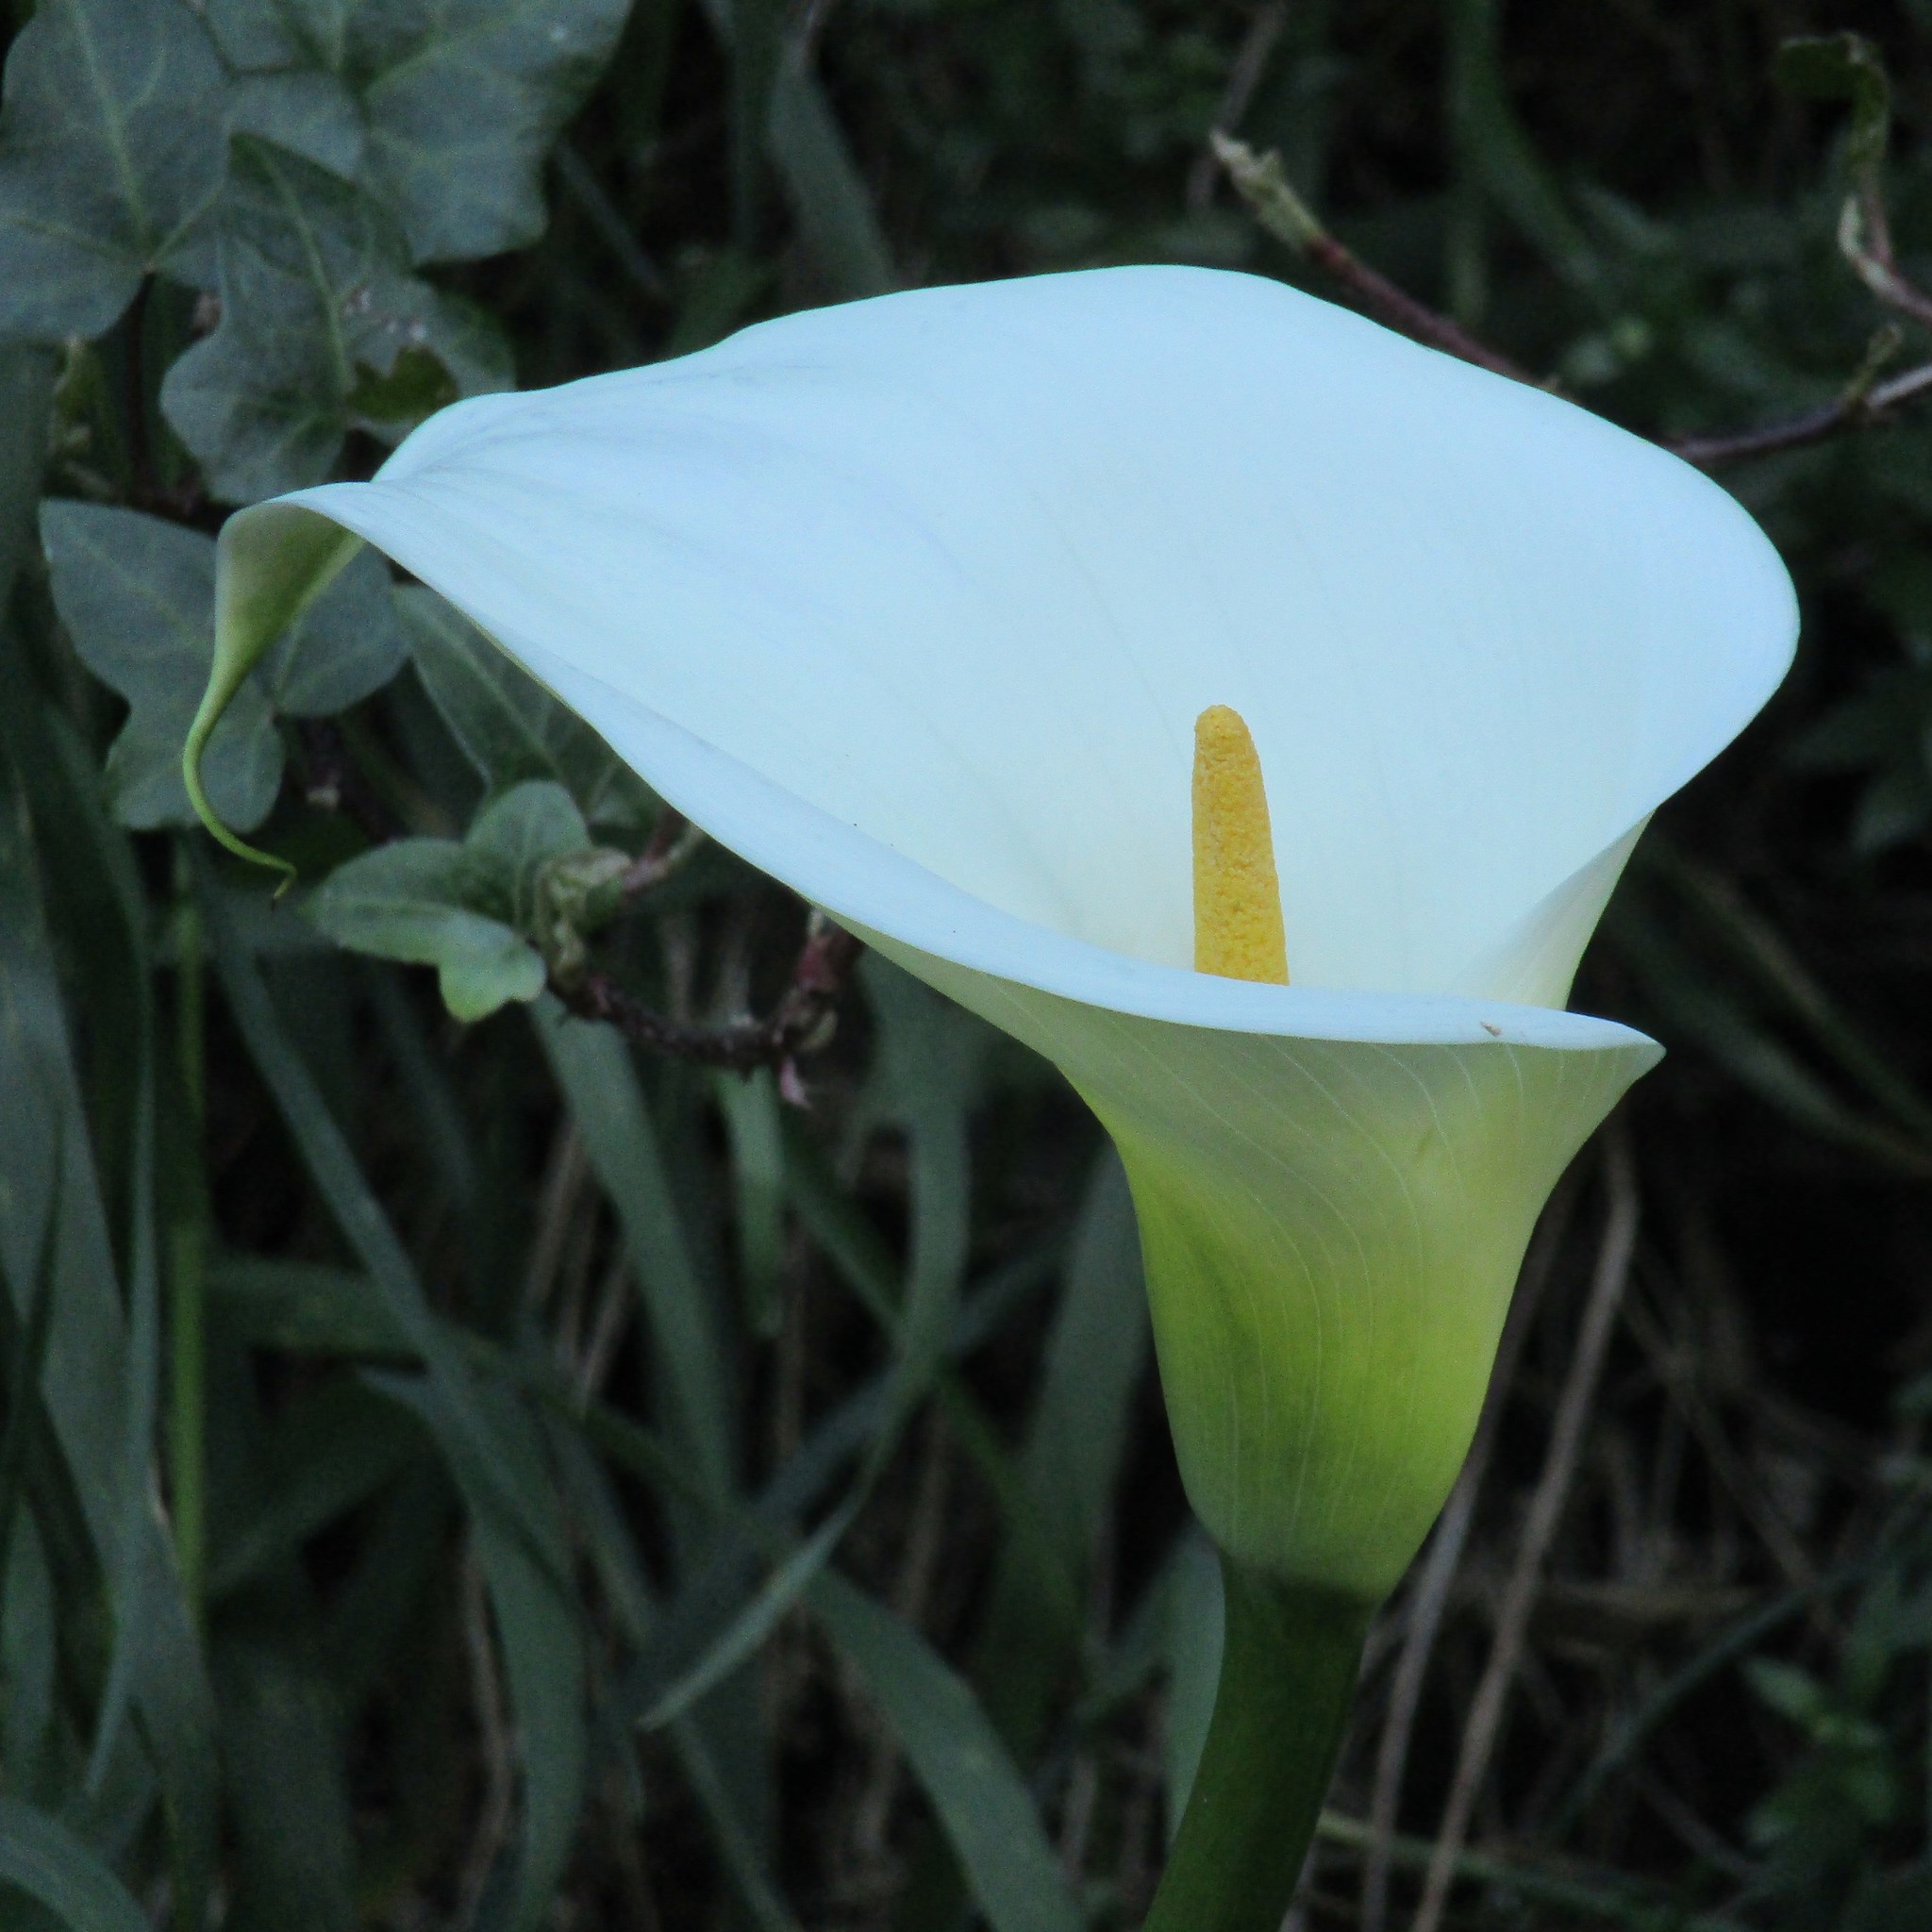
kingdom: Plantae
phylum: Tracheophyta
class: Liliopsida
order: Alismatales
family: Araceae
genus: Zantedeschia
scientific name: Zantedeschia aethiopica
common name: Altar-lily
